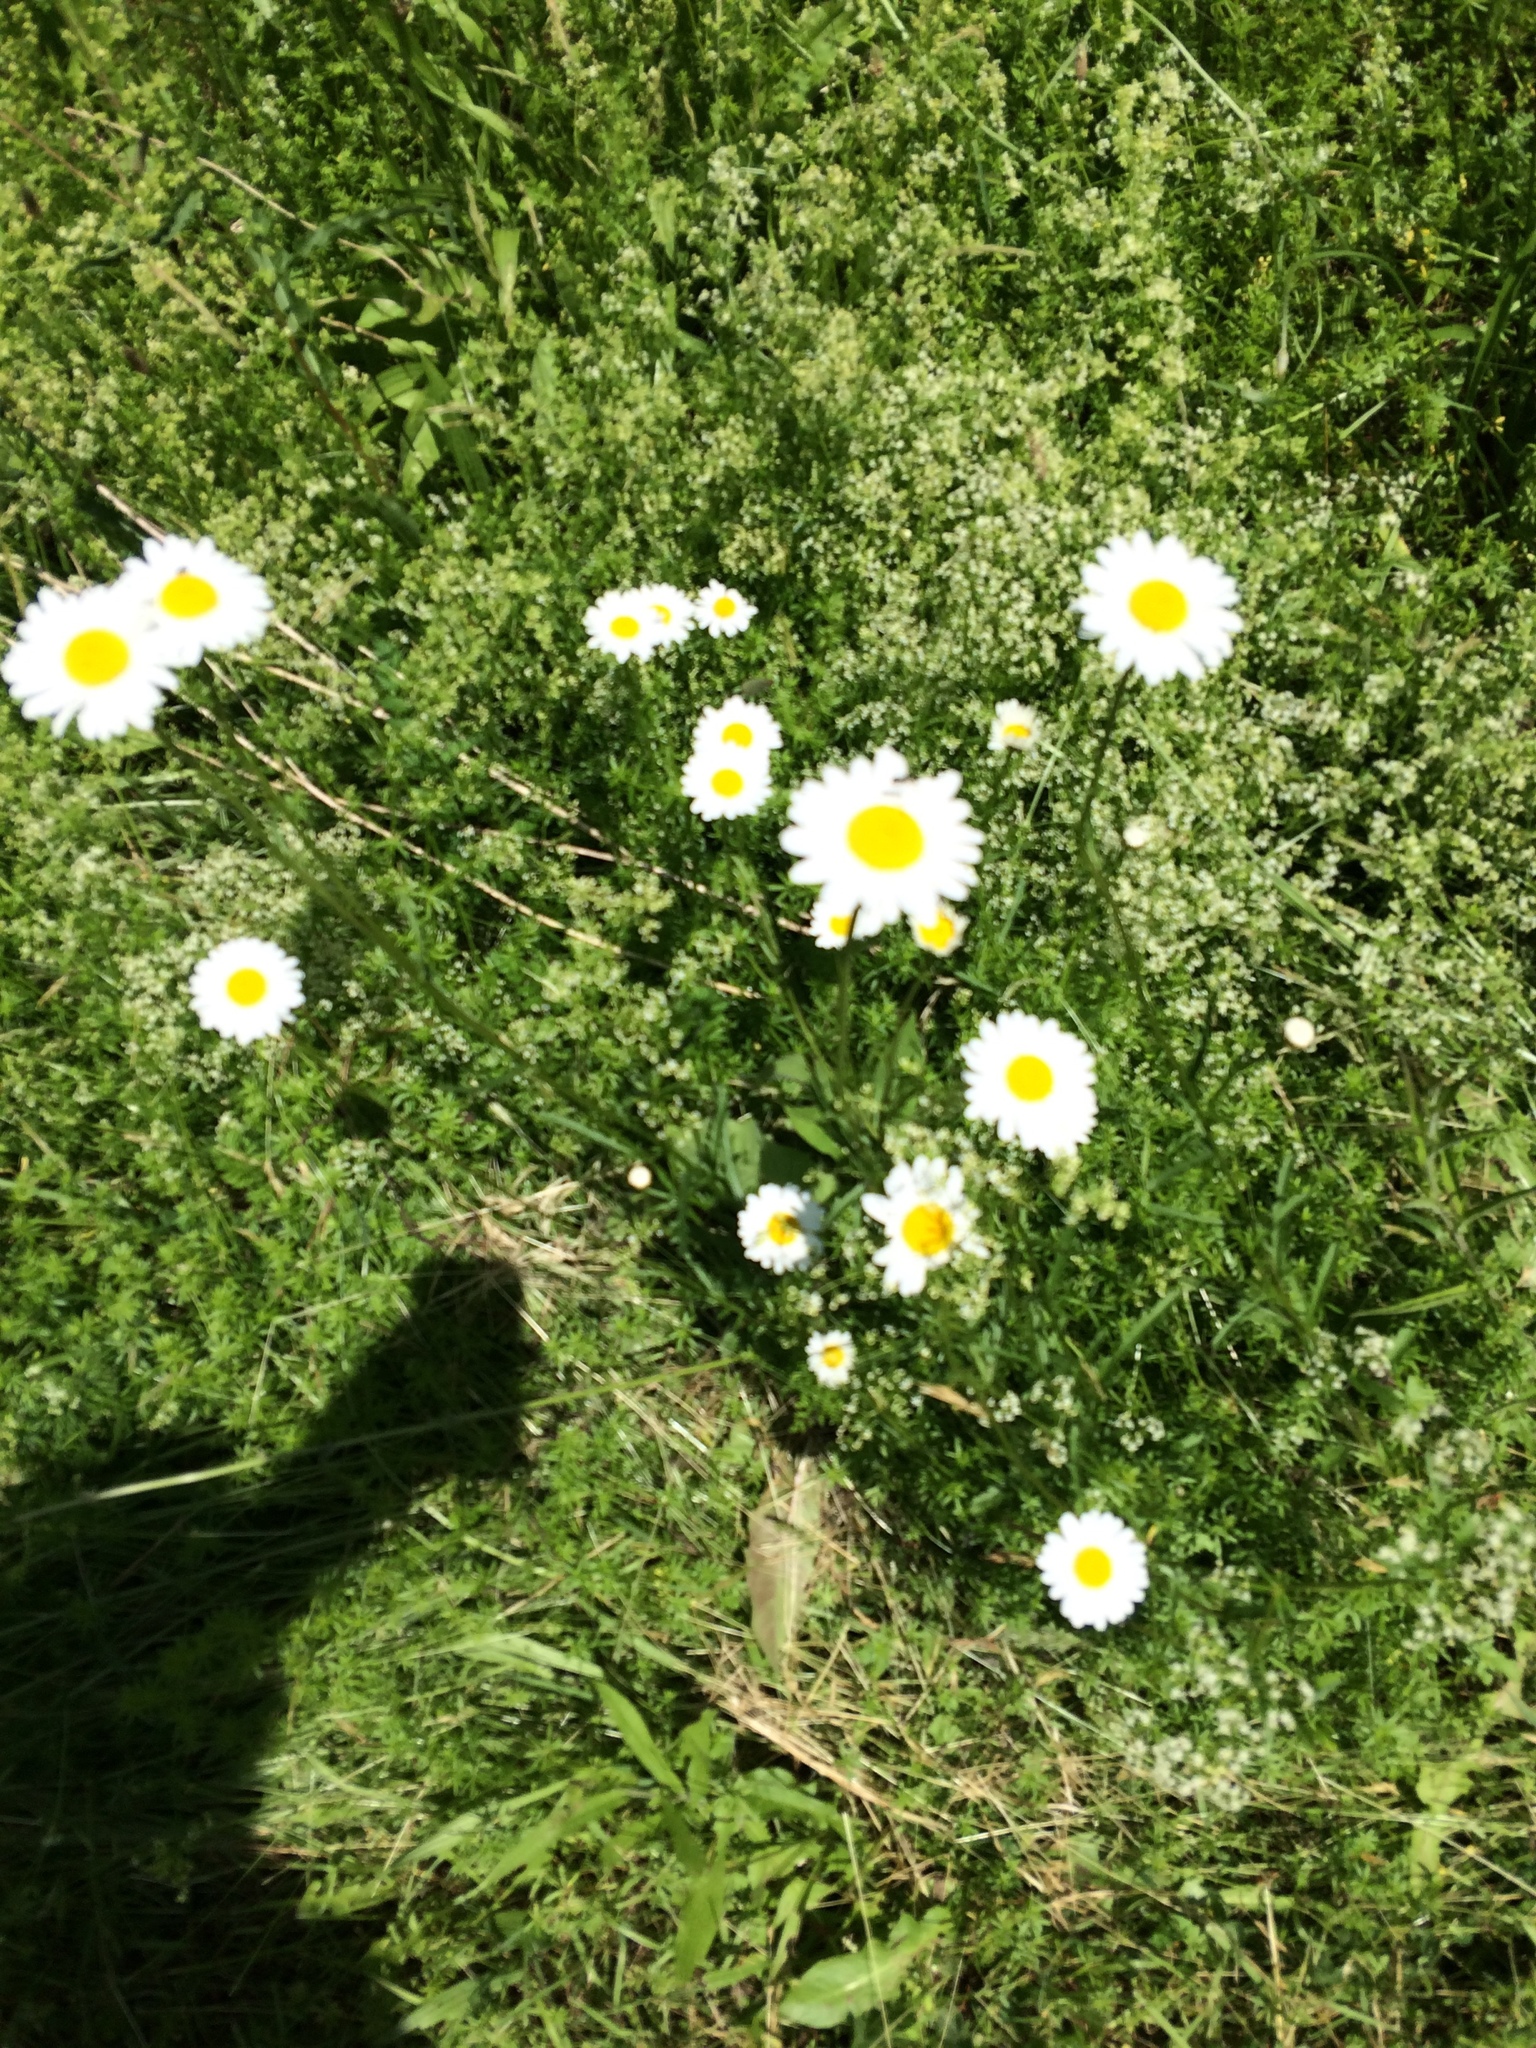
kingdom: Plantae
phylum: Tracheophyta
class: Magnoliopsida
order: Asterales
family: Asteraceae
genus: Leucanthemum
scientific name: Leucanthemum vulgare
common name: Oxeye daisy
